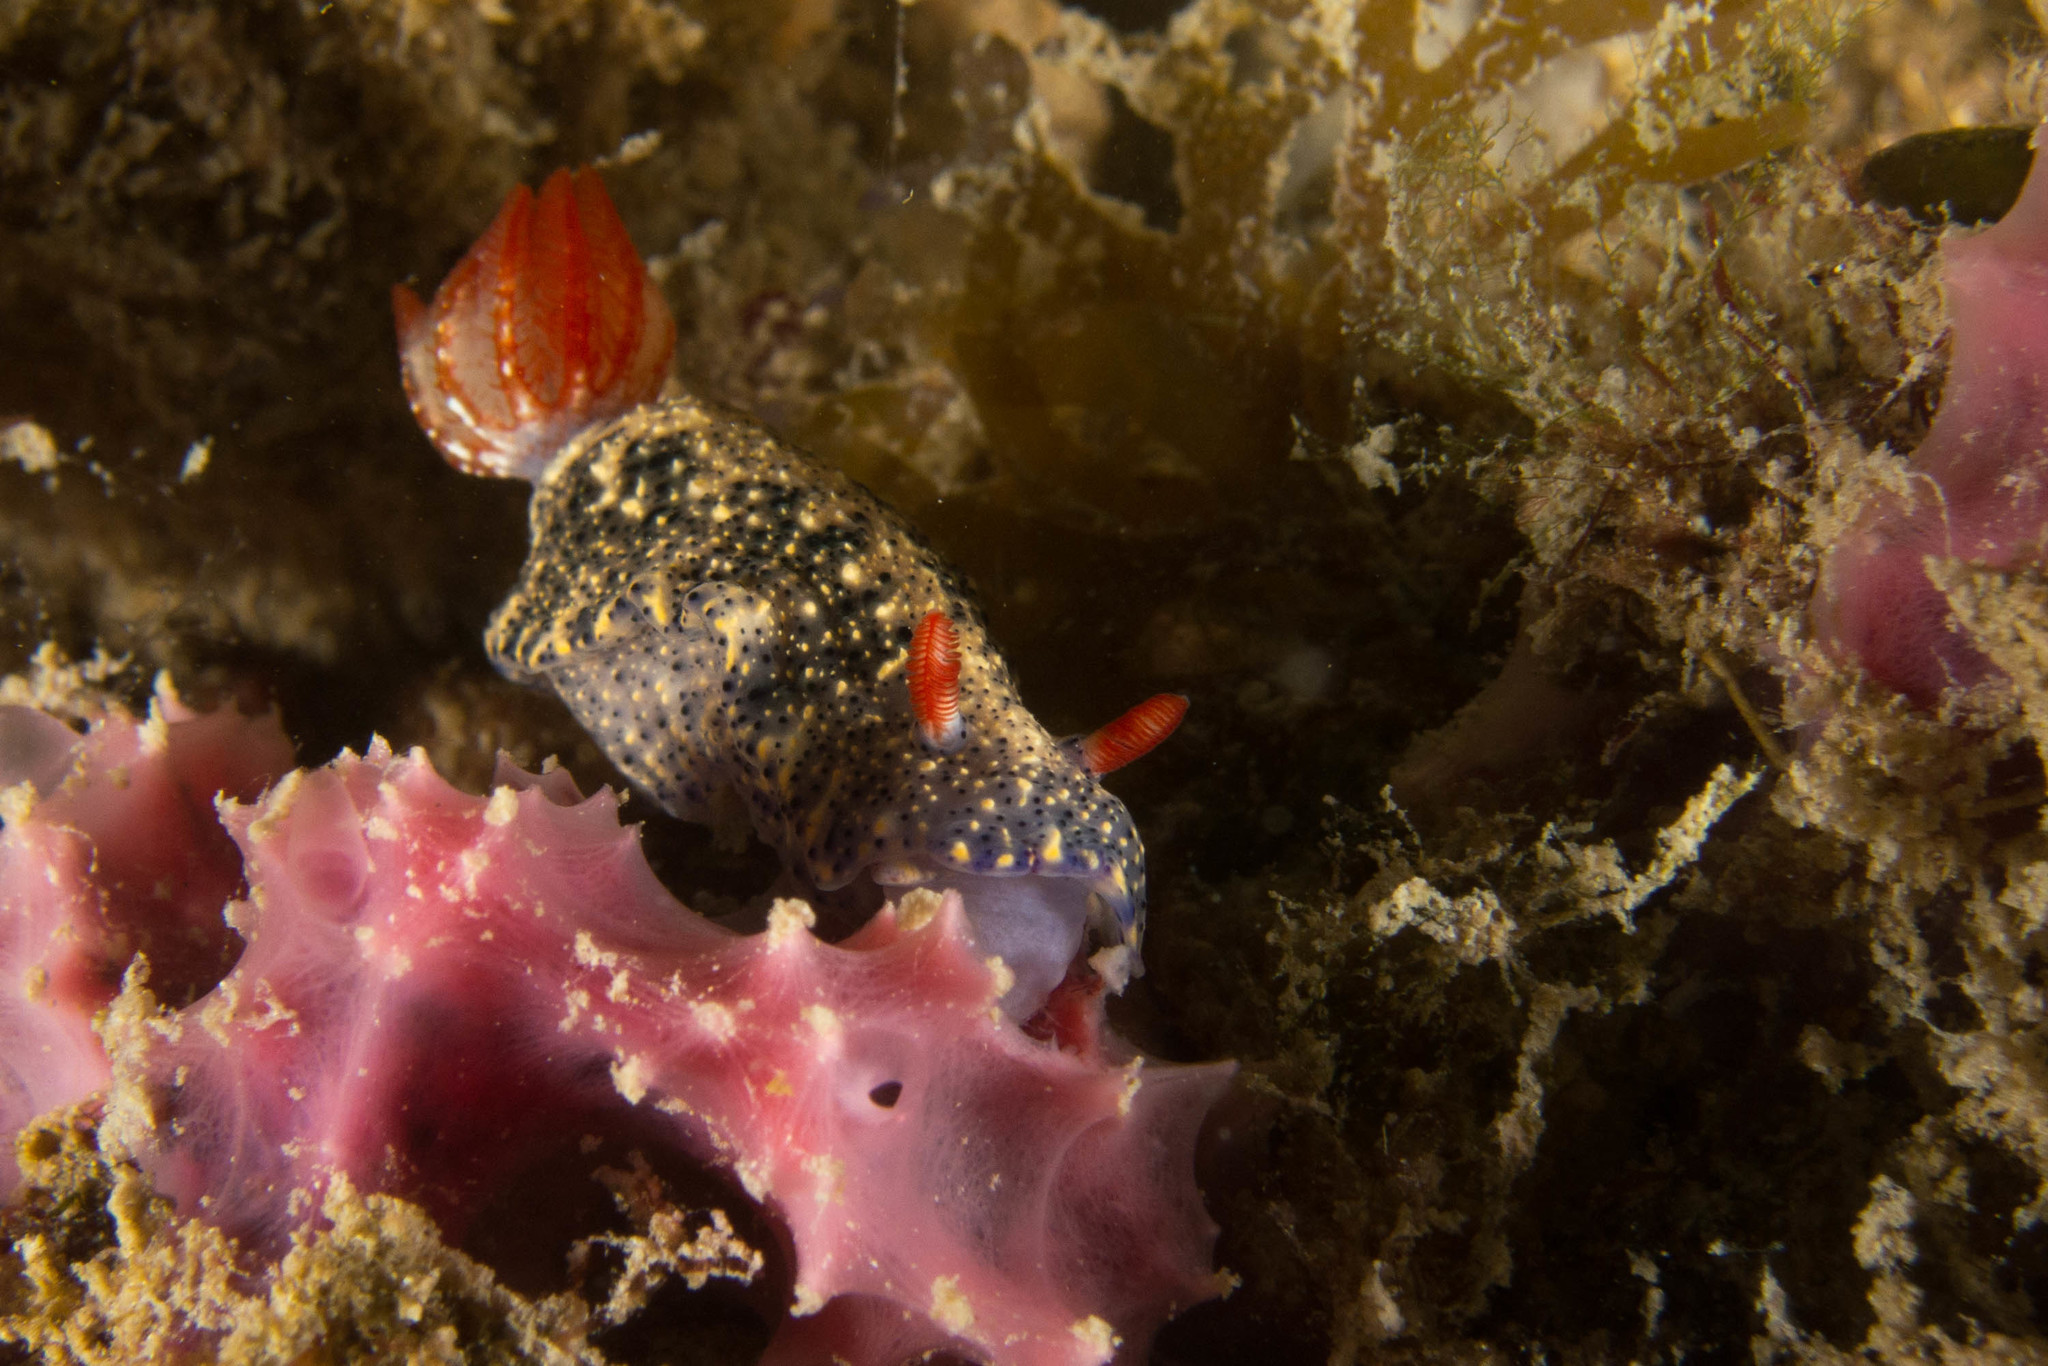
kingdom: Animalia
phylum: Mollusca
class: Gastropoda
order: Nudibranchia
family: Chromodorididae
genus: Hypselodoris
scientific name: Hypselodoris saintvincentius
